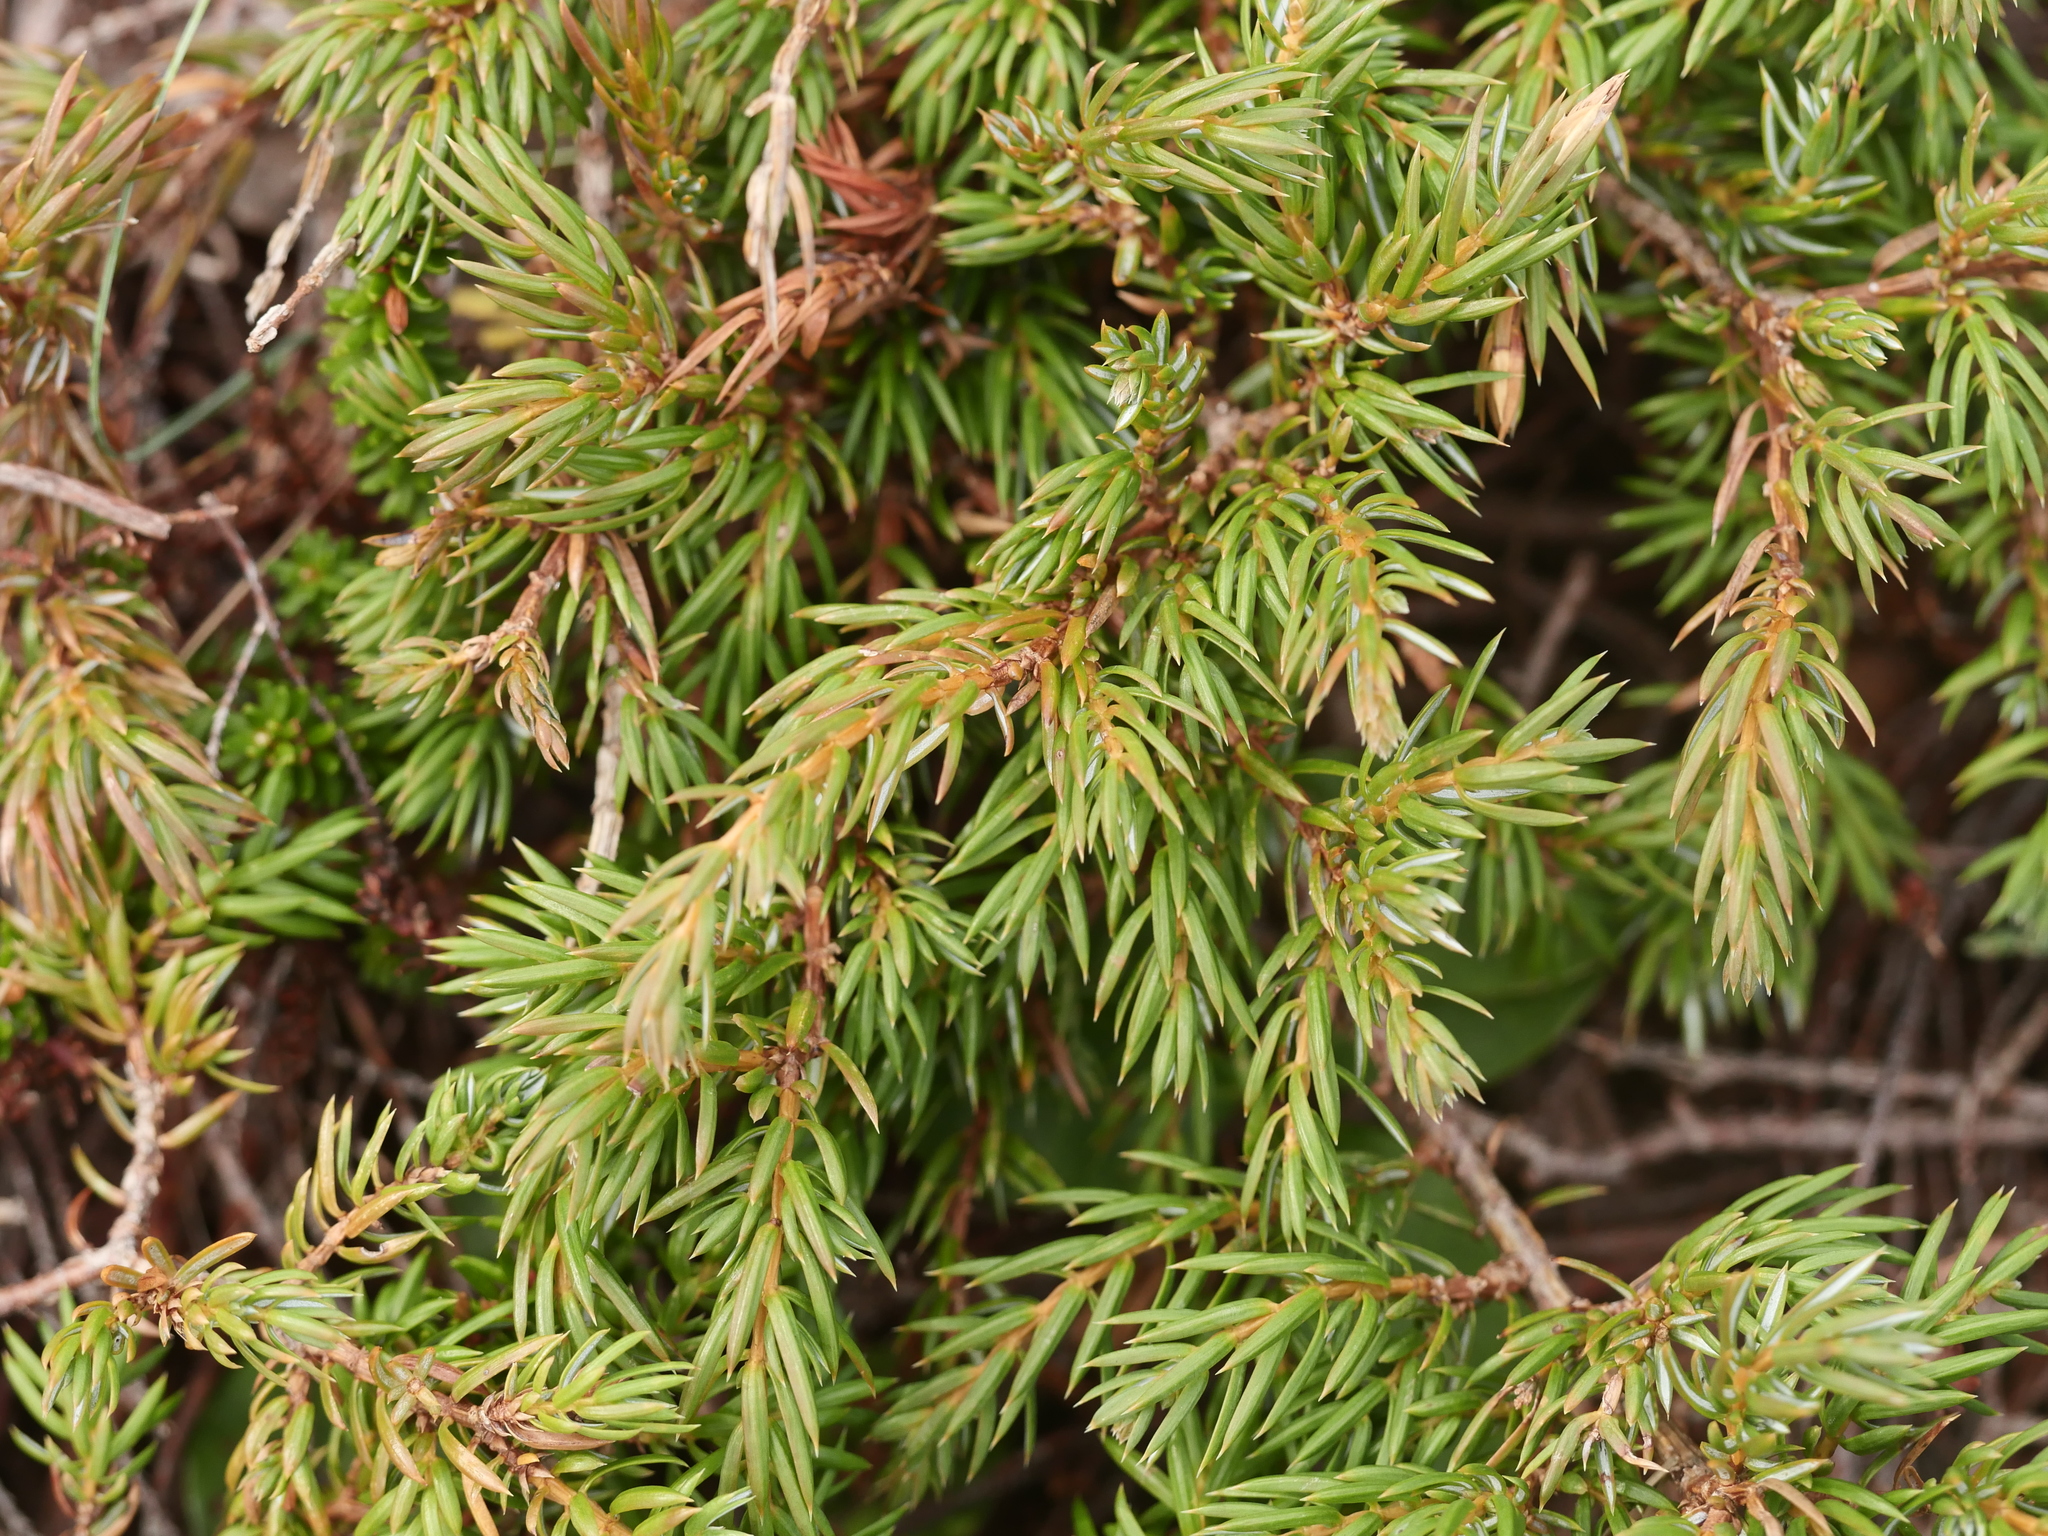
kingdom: Plantae
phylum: Tracheophyta
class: Pinopsida
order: Pinales
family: Cupressaceae
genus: Juniperus
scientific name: Juniperus communis
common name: Common juniper
